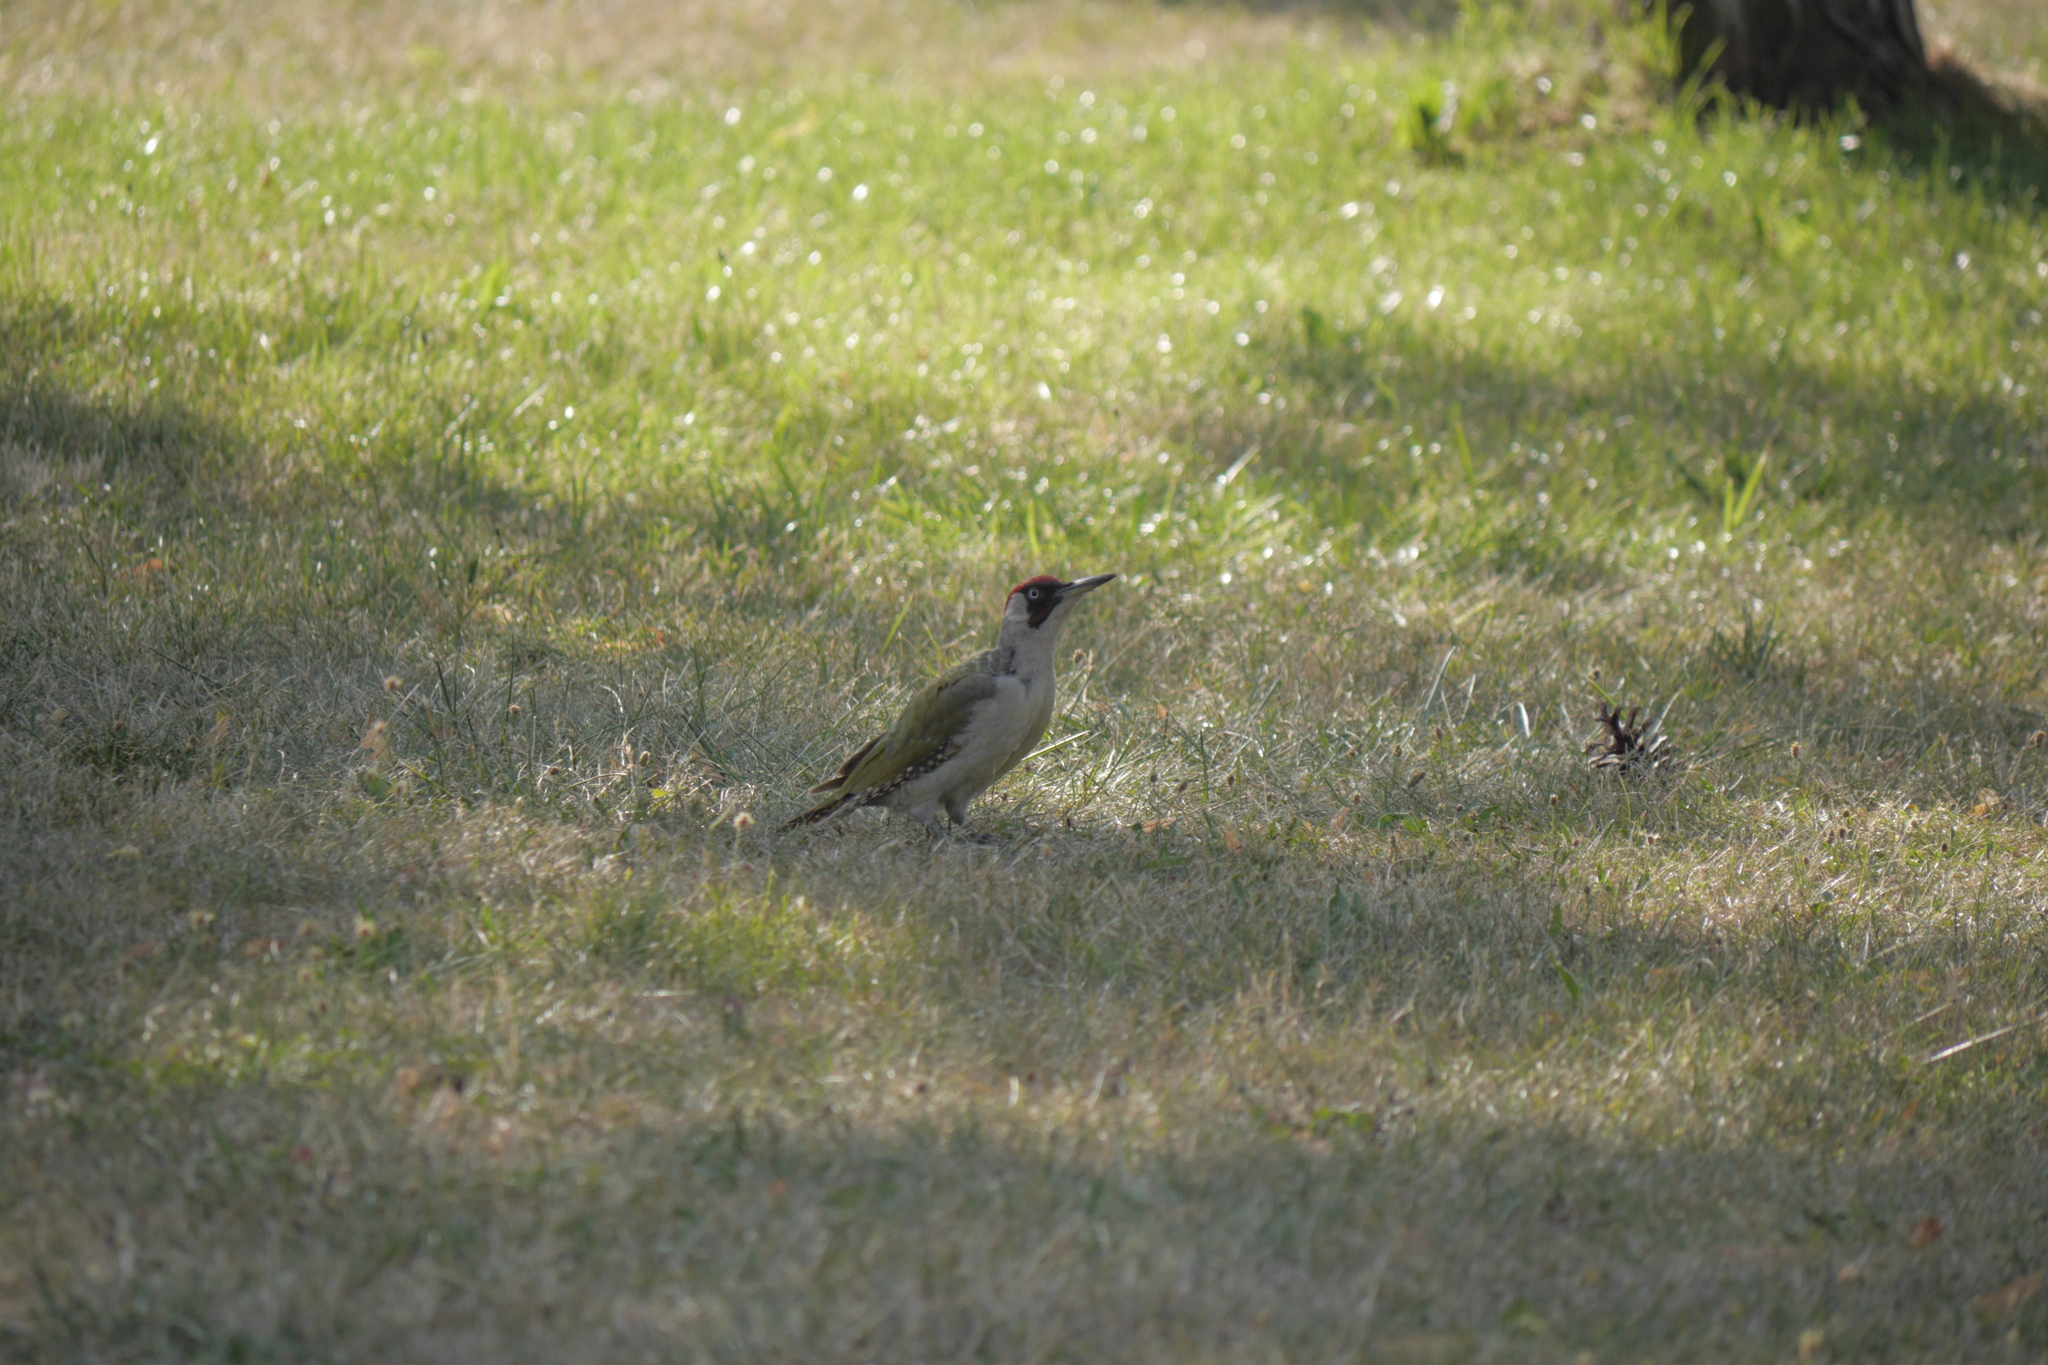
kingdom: Animalia
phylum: Chordata
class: Aves
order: Piciformes
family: Picidae
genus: Picus
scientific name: Picus viridis
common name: European green woodpecker
